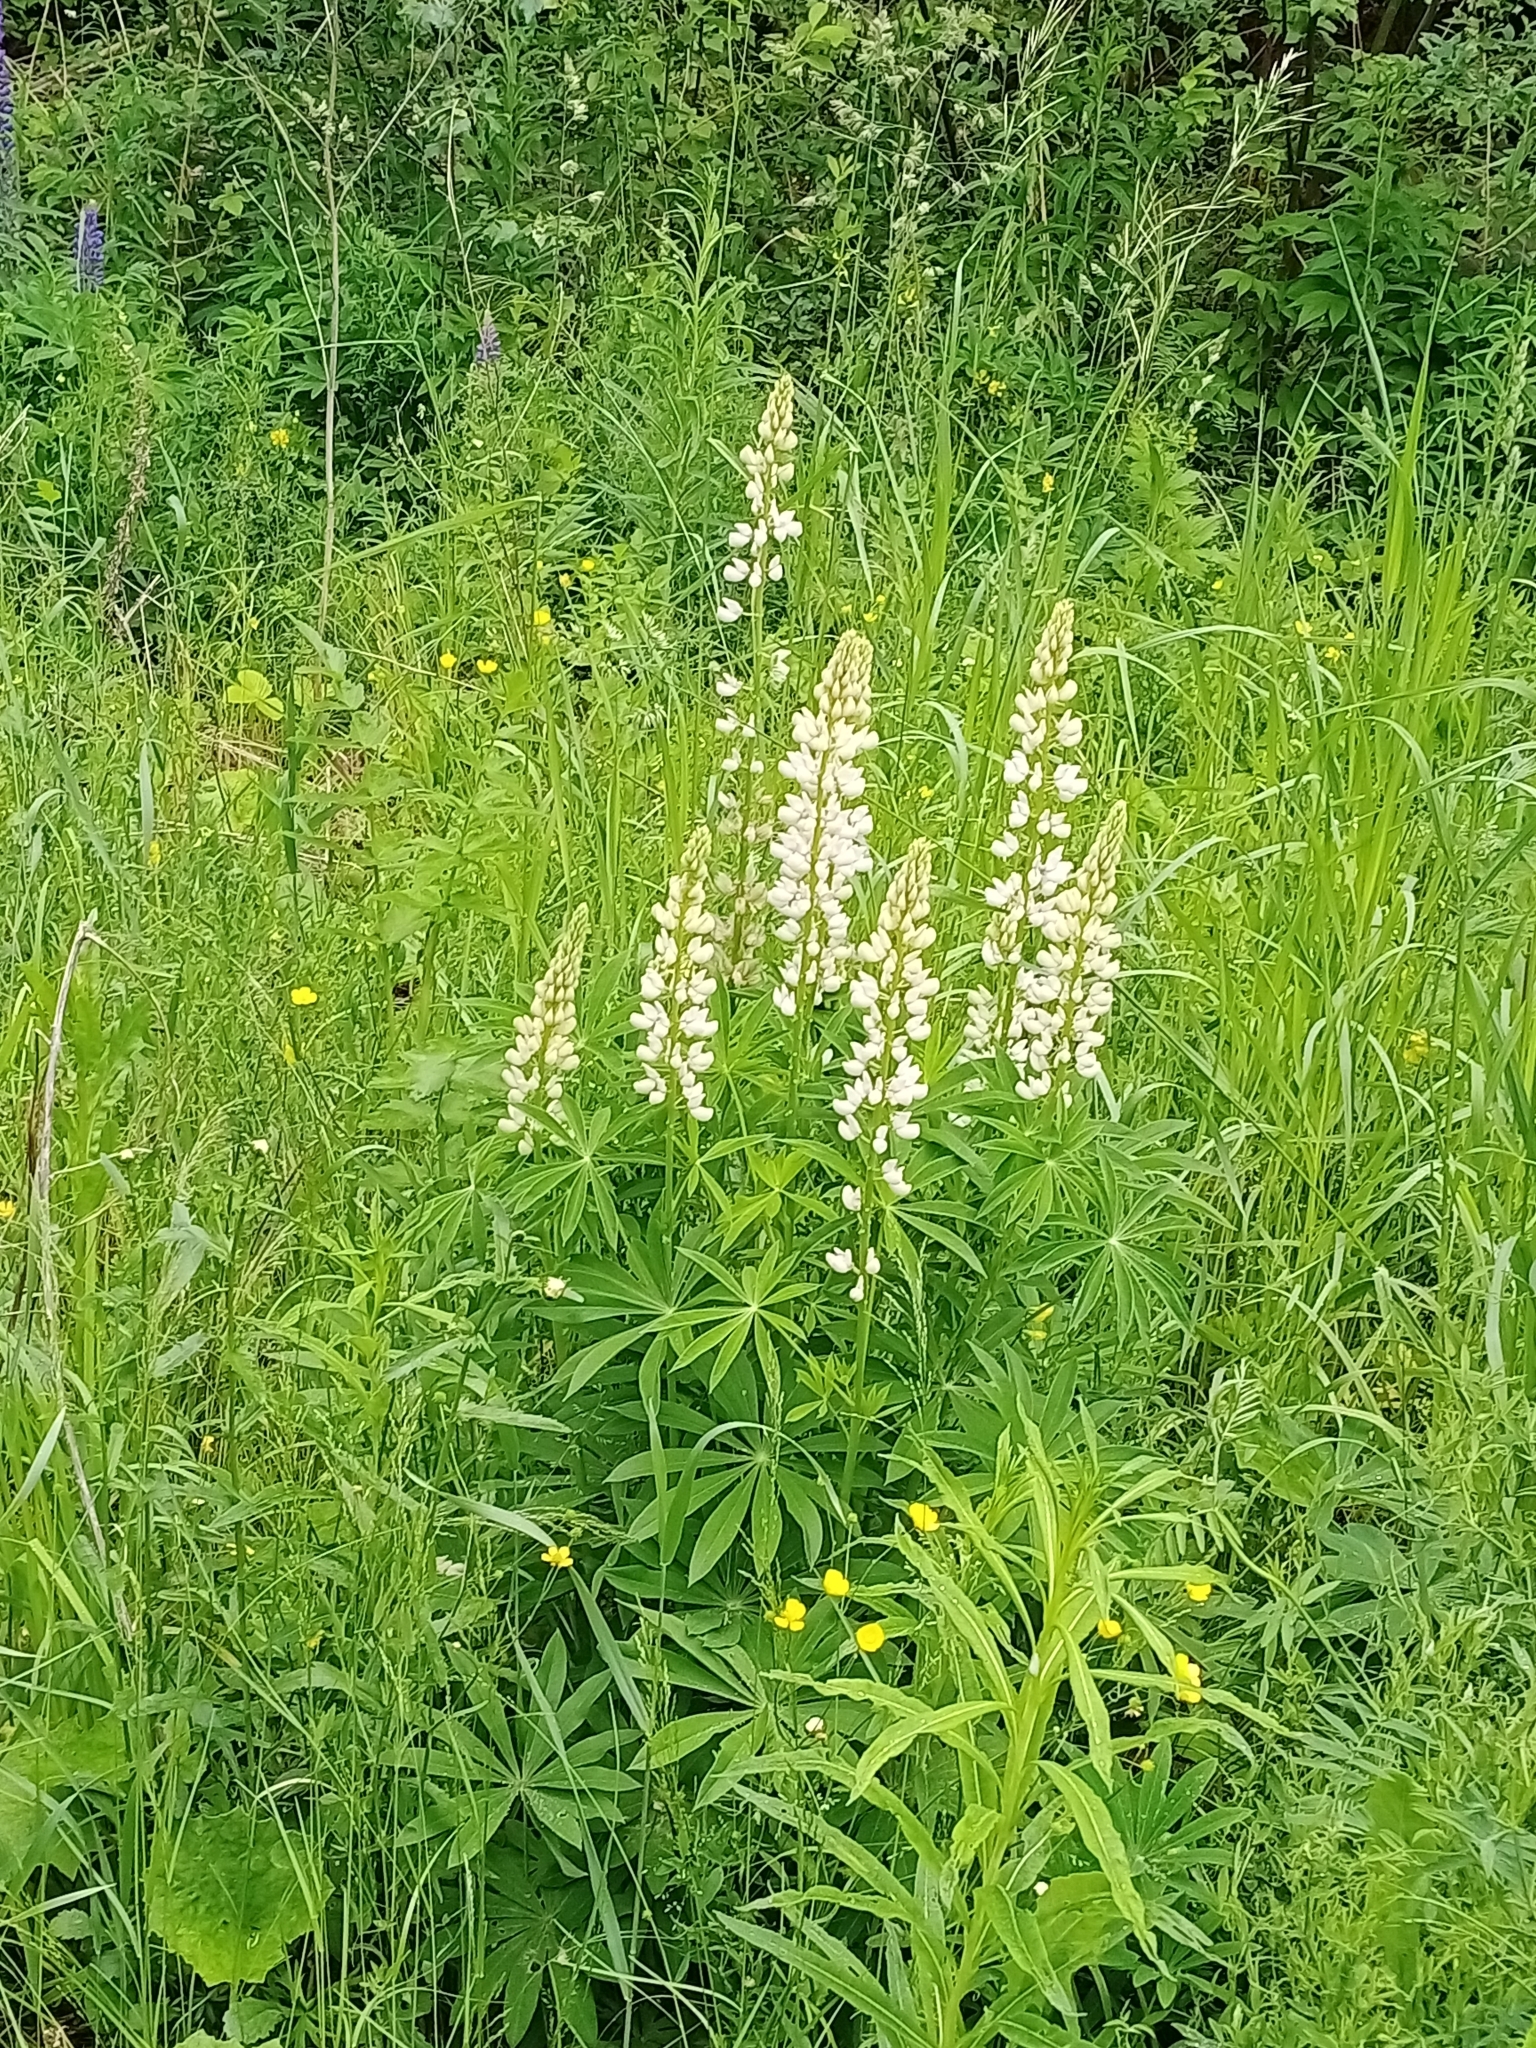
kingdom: Plantae
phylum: Tracheophyta
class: Magnoliopsida
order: Fabales
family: Fabaceae
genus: Lupinus
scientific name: Lupinus polyphyllus
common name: Garden lupin
